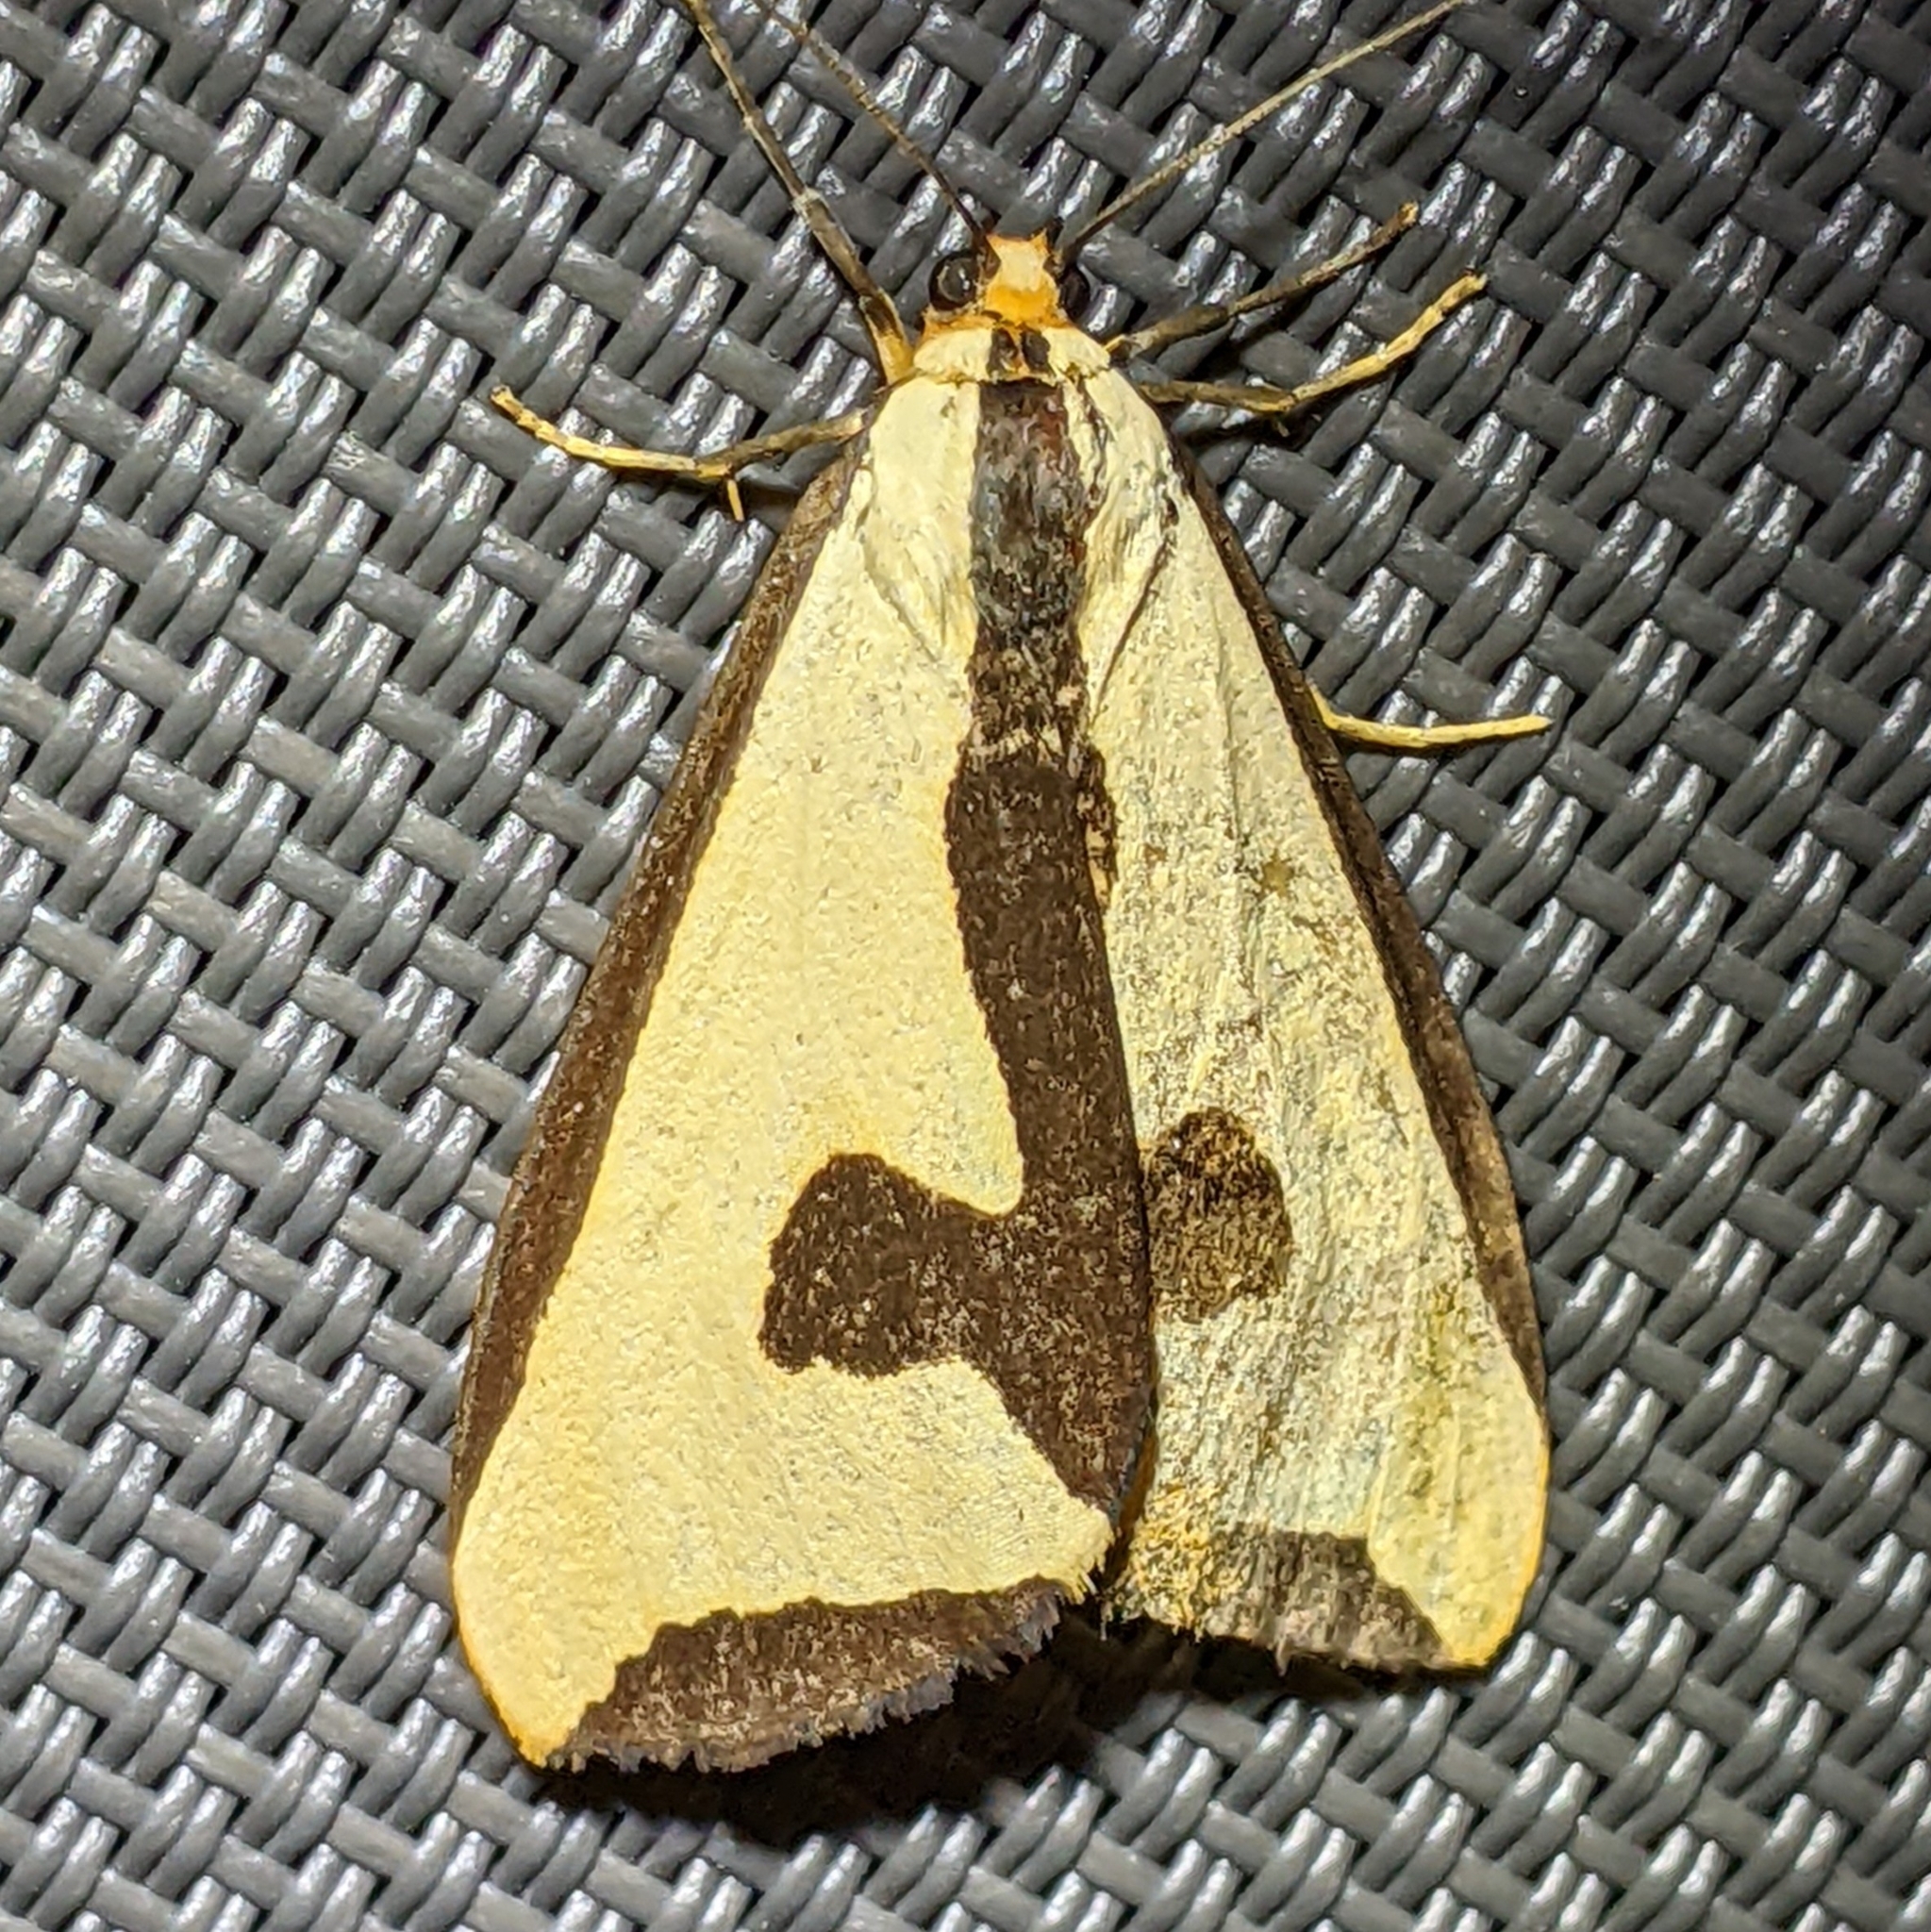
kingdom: Animalia
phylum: Arthropoda
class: Insecta
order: Lepidoptera
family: Erebidae
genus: Haploa
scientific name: Haploa clymene
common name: Clymene moth
